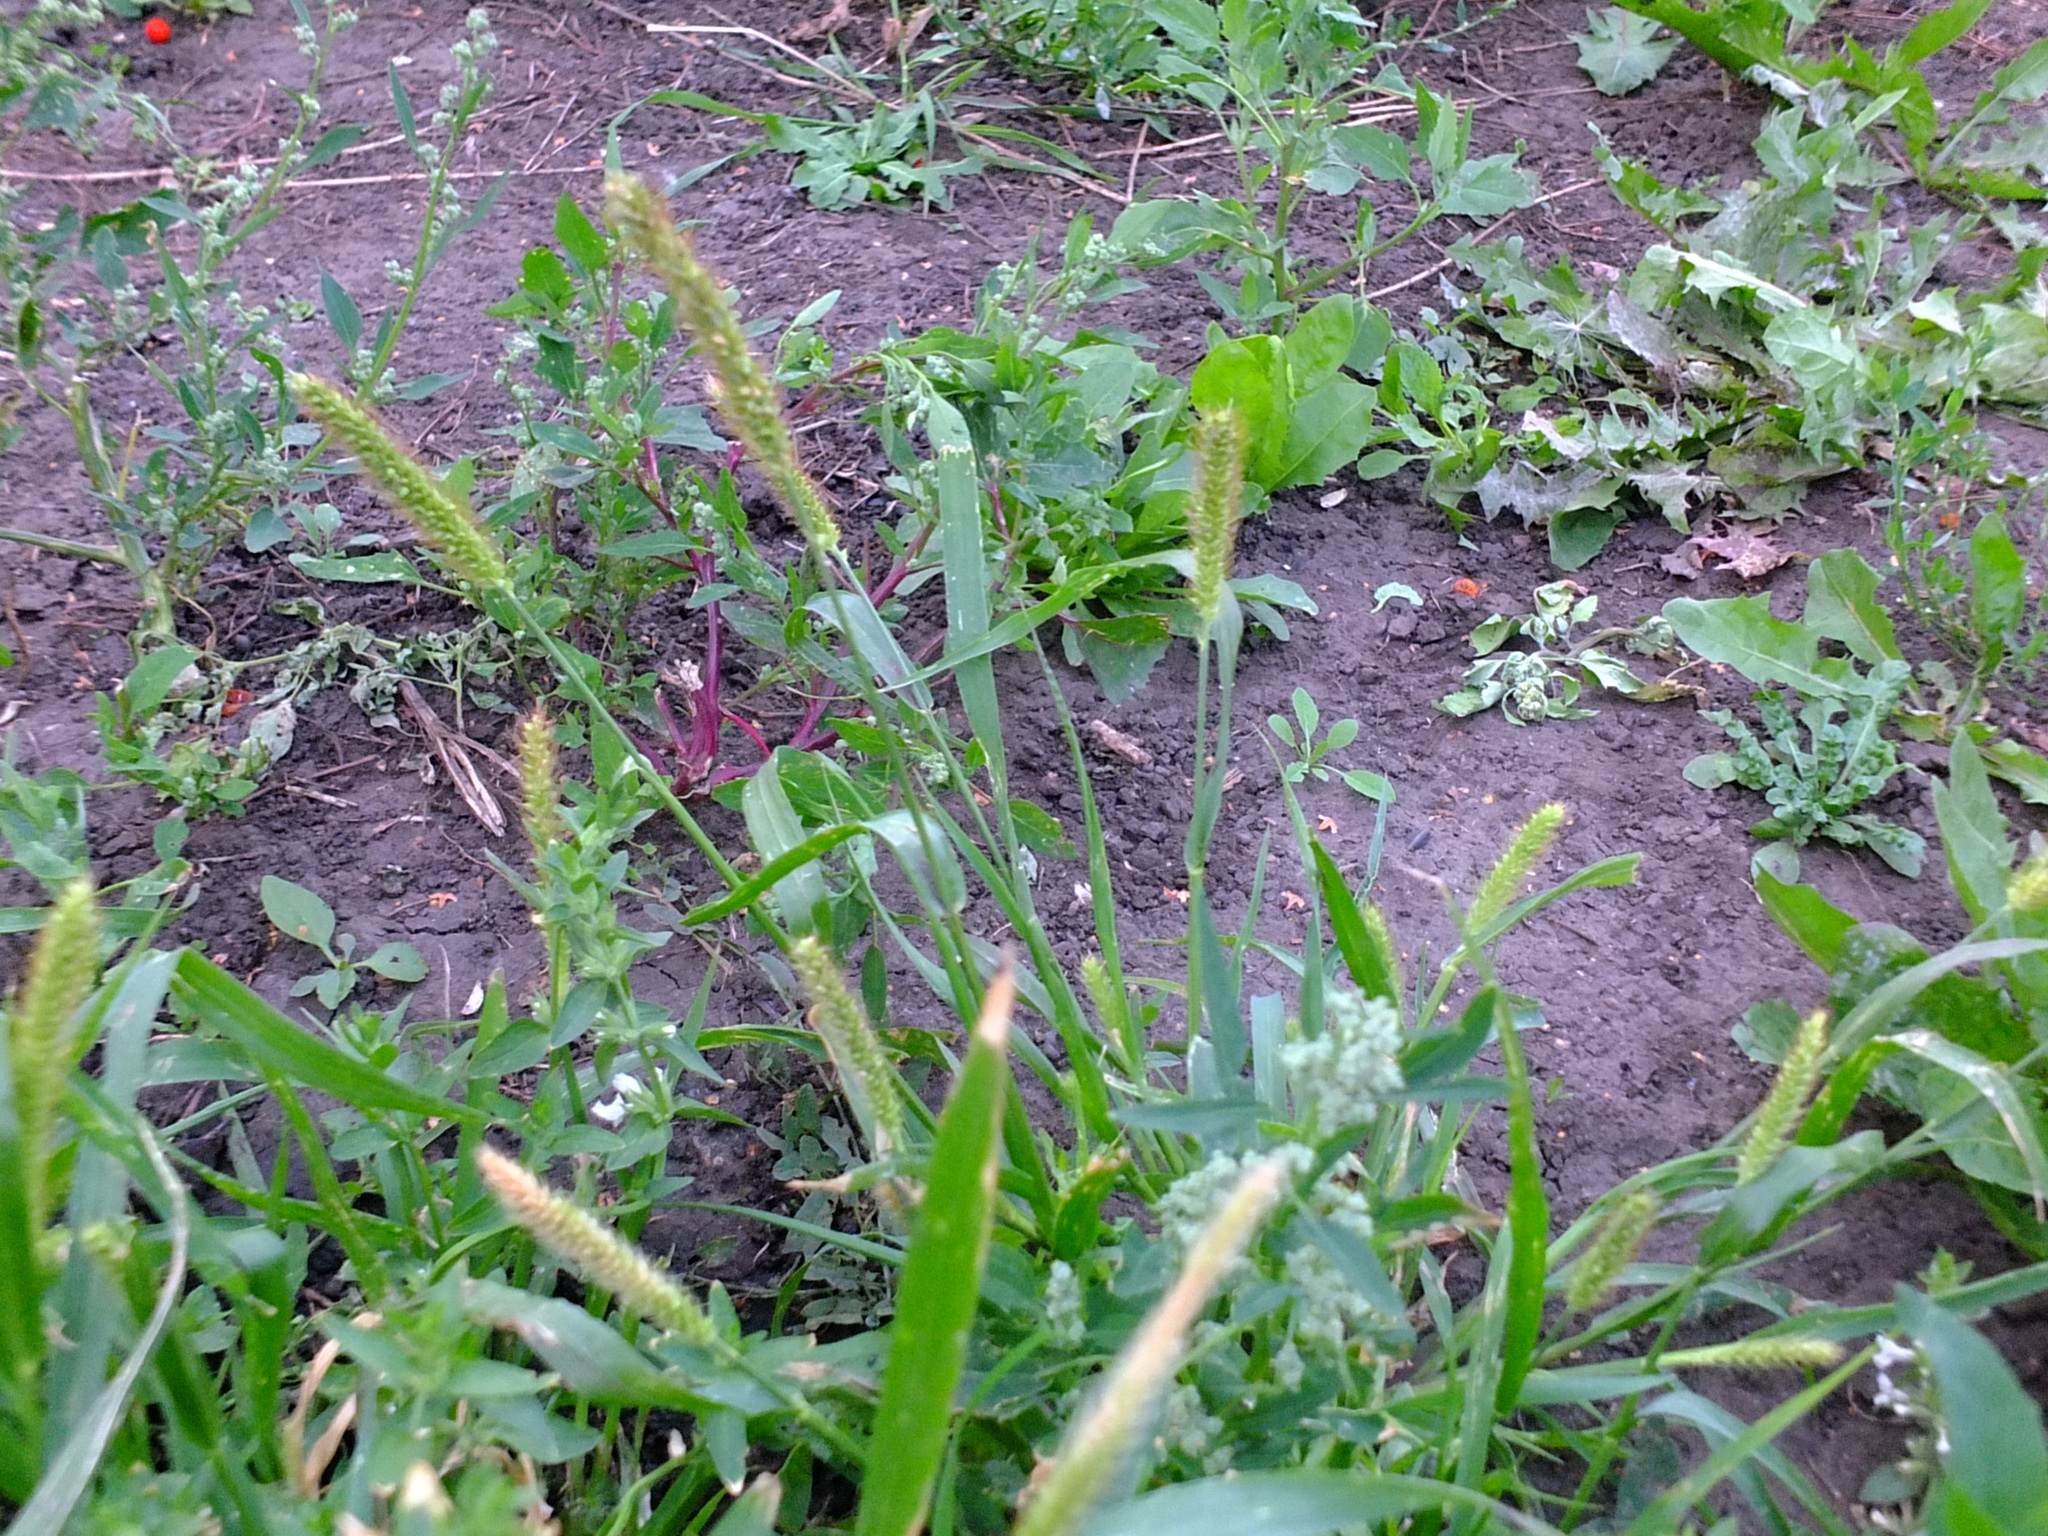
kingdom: Plantae
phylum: Tracheophyta
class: Liliopsida
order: Poales
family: Poaceae
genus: Setaria
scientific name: Setaria pumila
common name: Yellow bristle-grass
